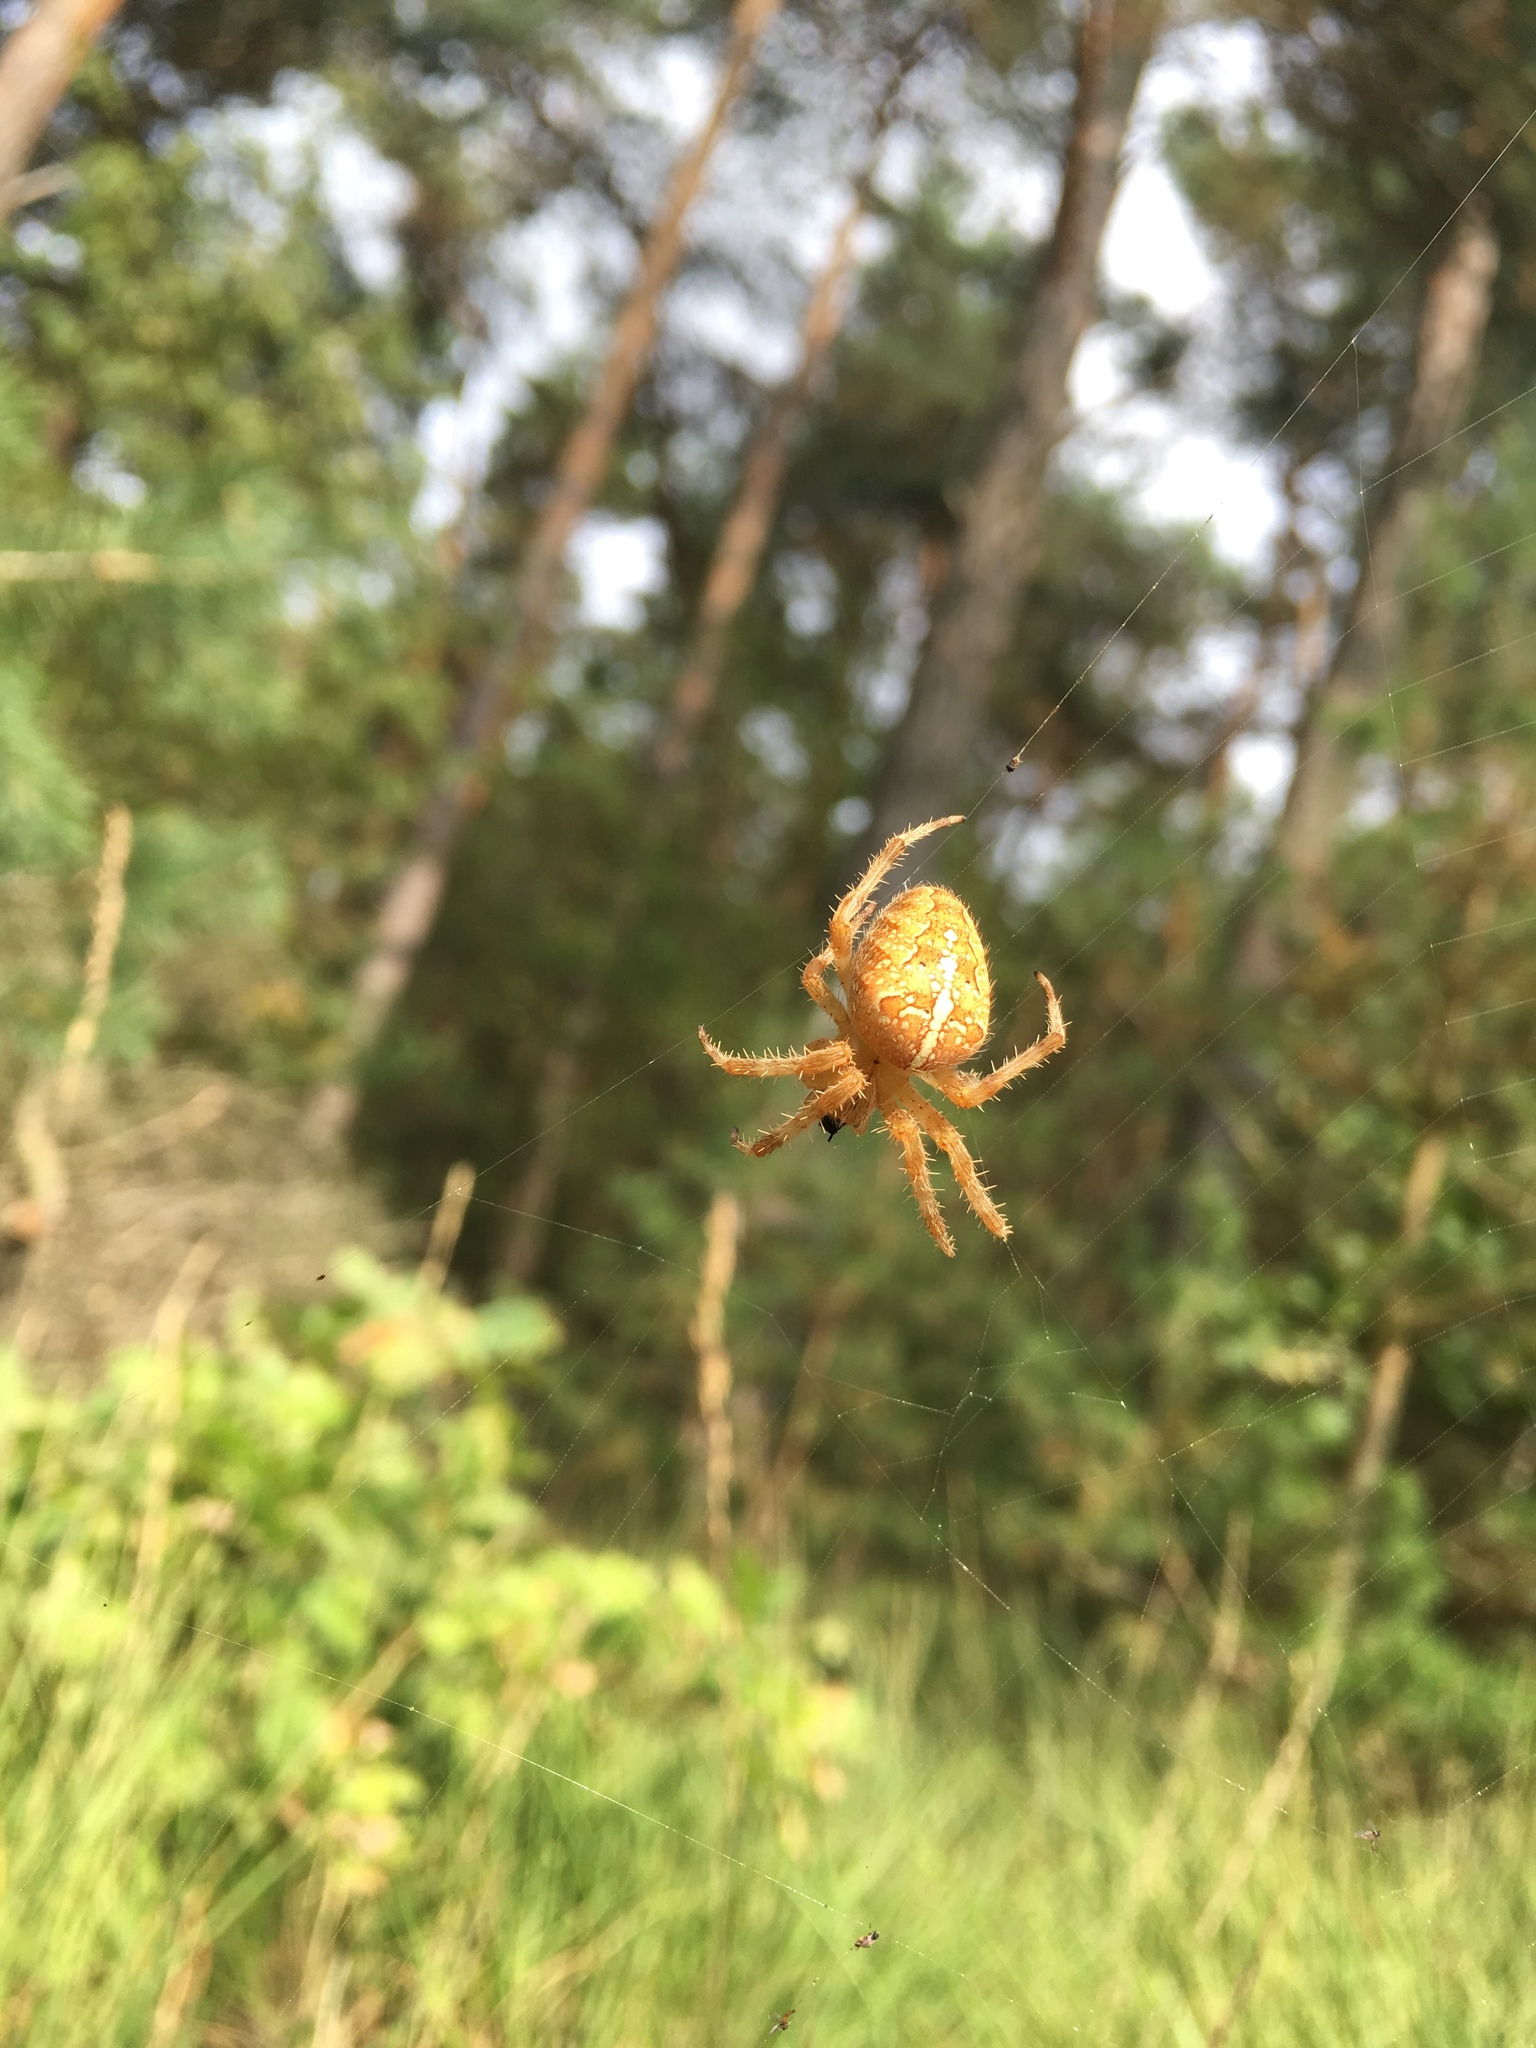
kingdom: Animalia
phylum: Arthropoda
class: Arachnida
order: Araneae
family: Araneidae
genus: Araneus
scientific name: Araneus diadematus
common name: Cross orbweaver
